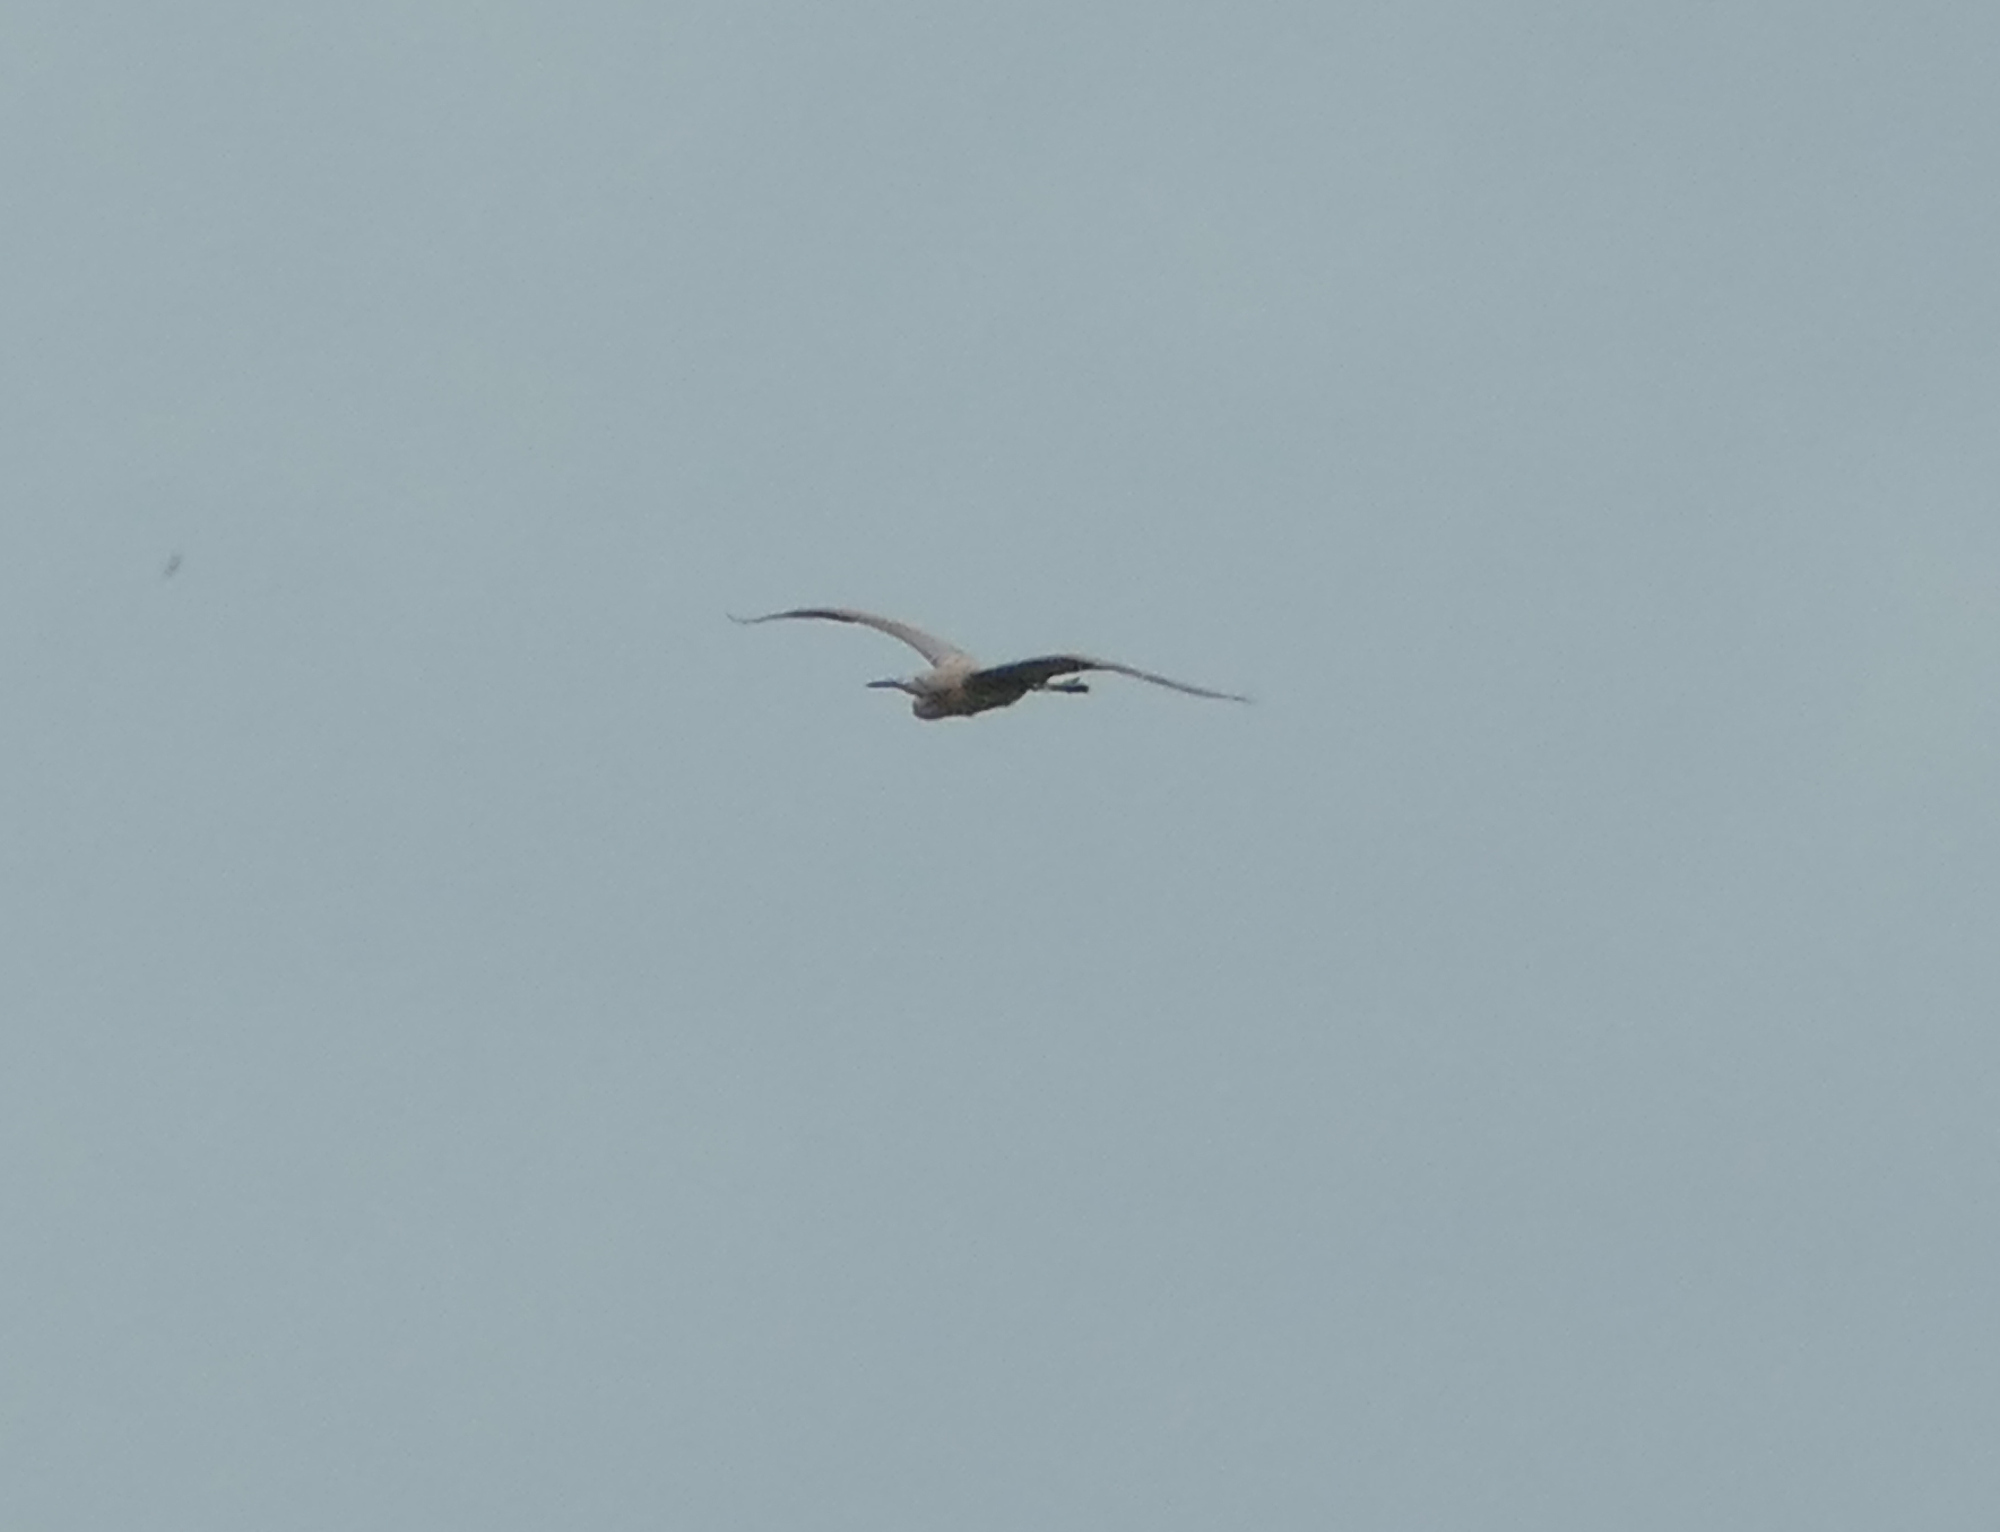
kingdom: Animalia
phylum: Chordata
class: Aves
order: Pelecaniformes
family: Ardeidae
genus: Egretta
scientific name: Egretta rufescens
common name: Reddish egret
